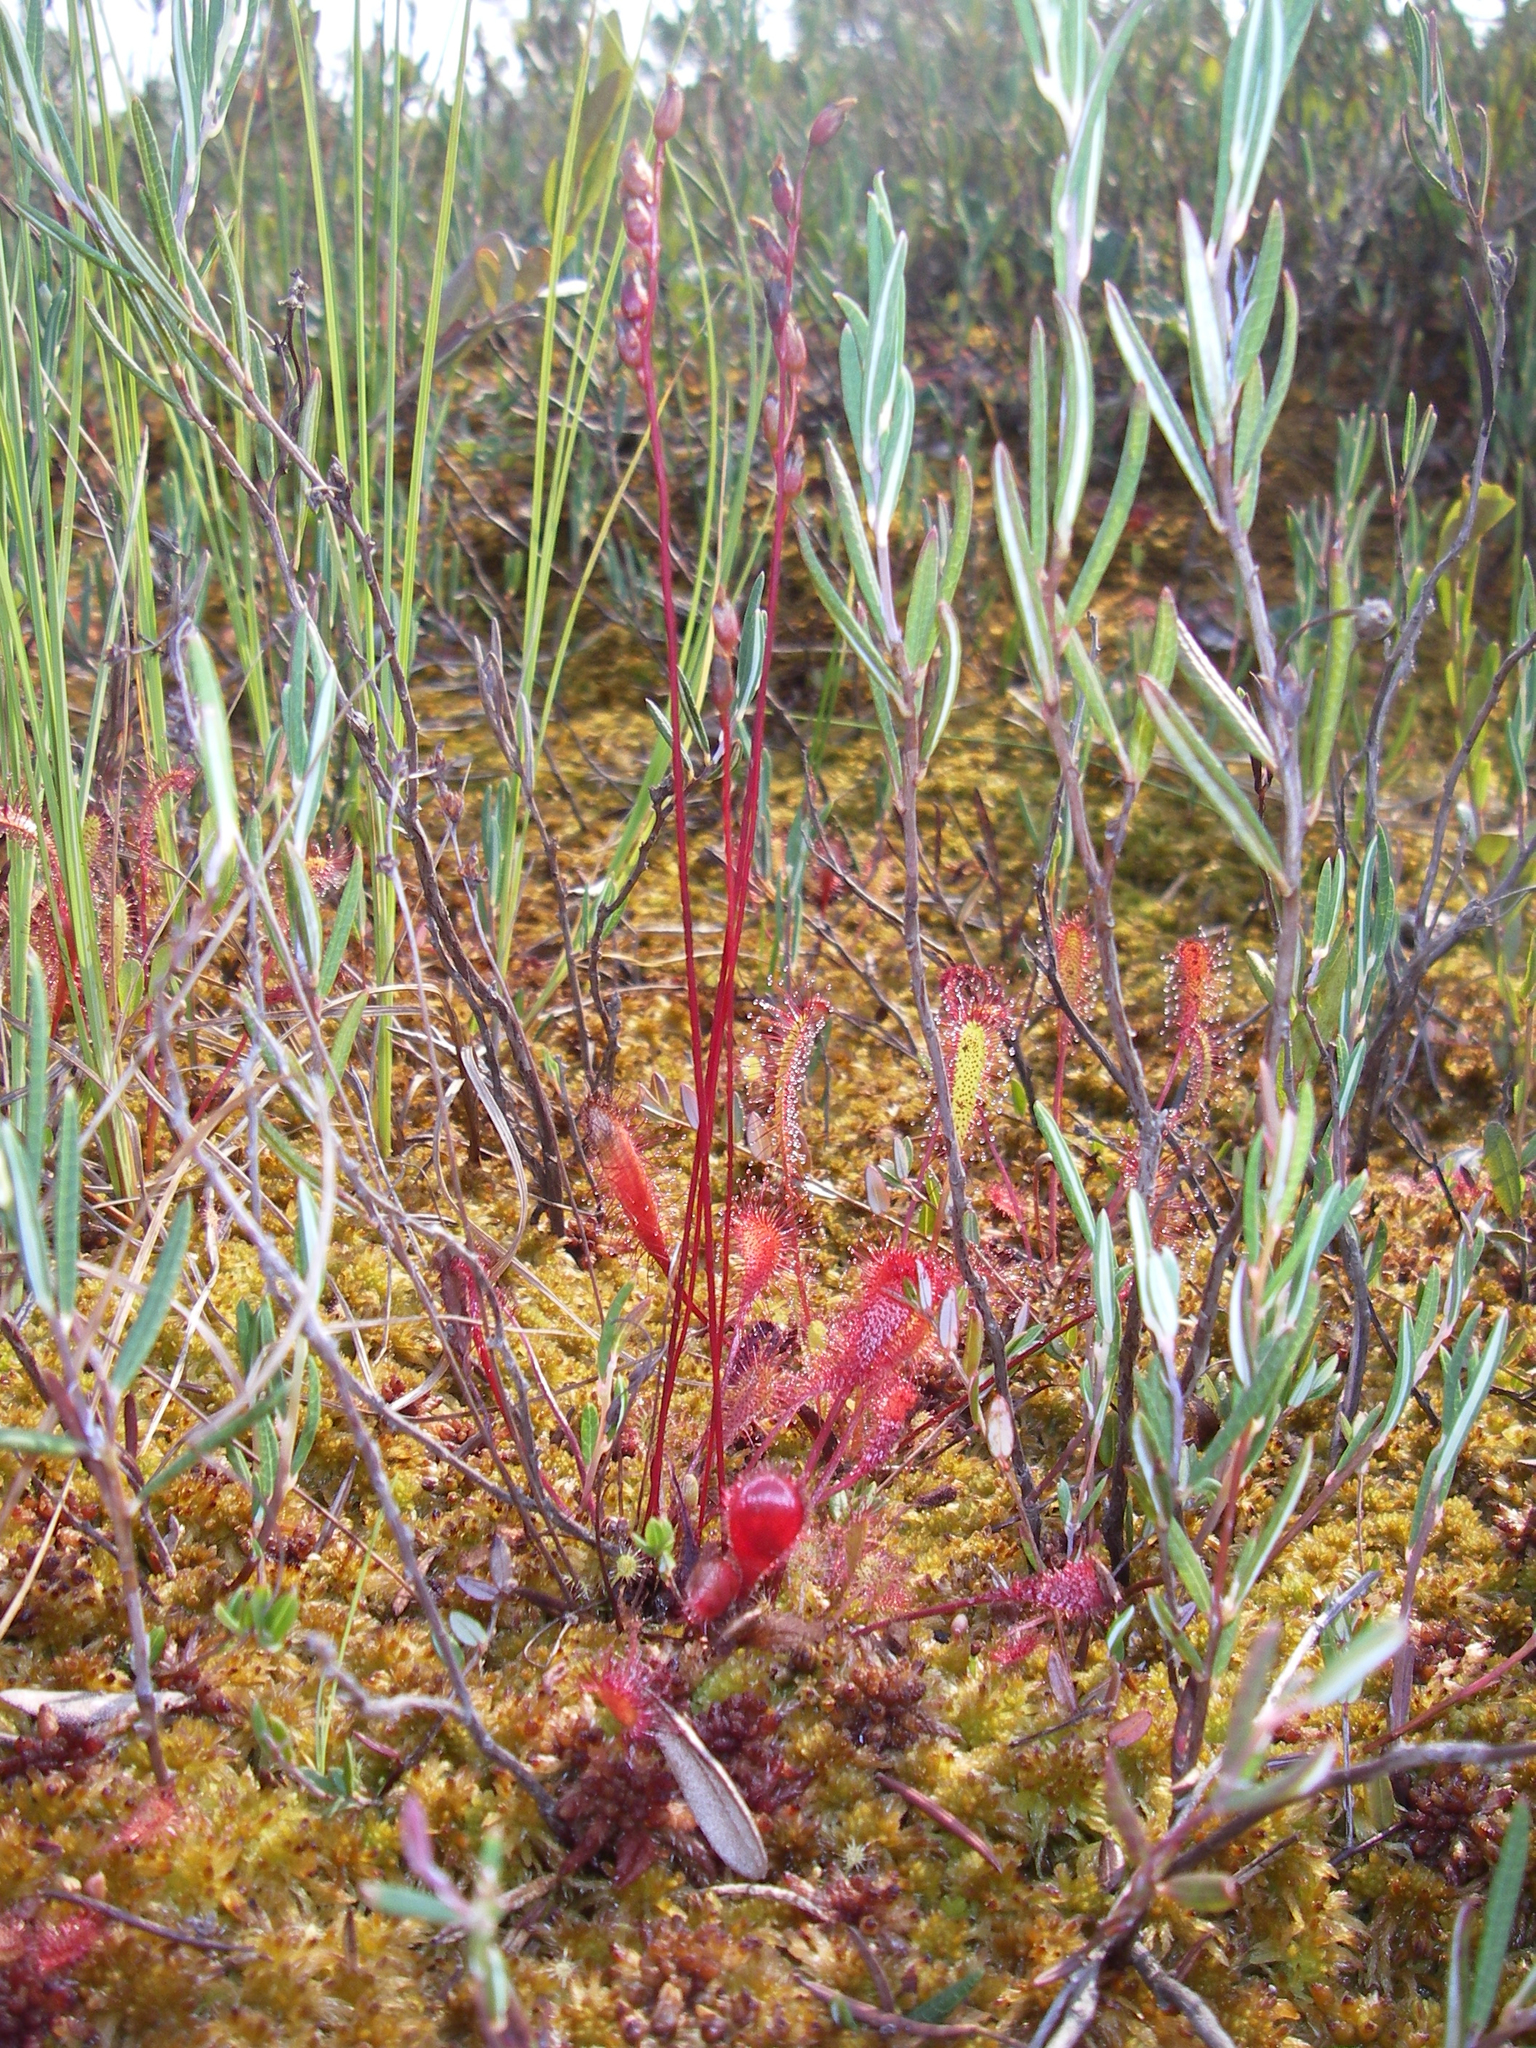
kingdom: Plantae
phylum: Tracheophyta
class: Magnoliopsida
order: Caryophyllales
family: Droseraceae
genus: Drosera
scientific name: Drosera anglica
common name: Great sundew
